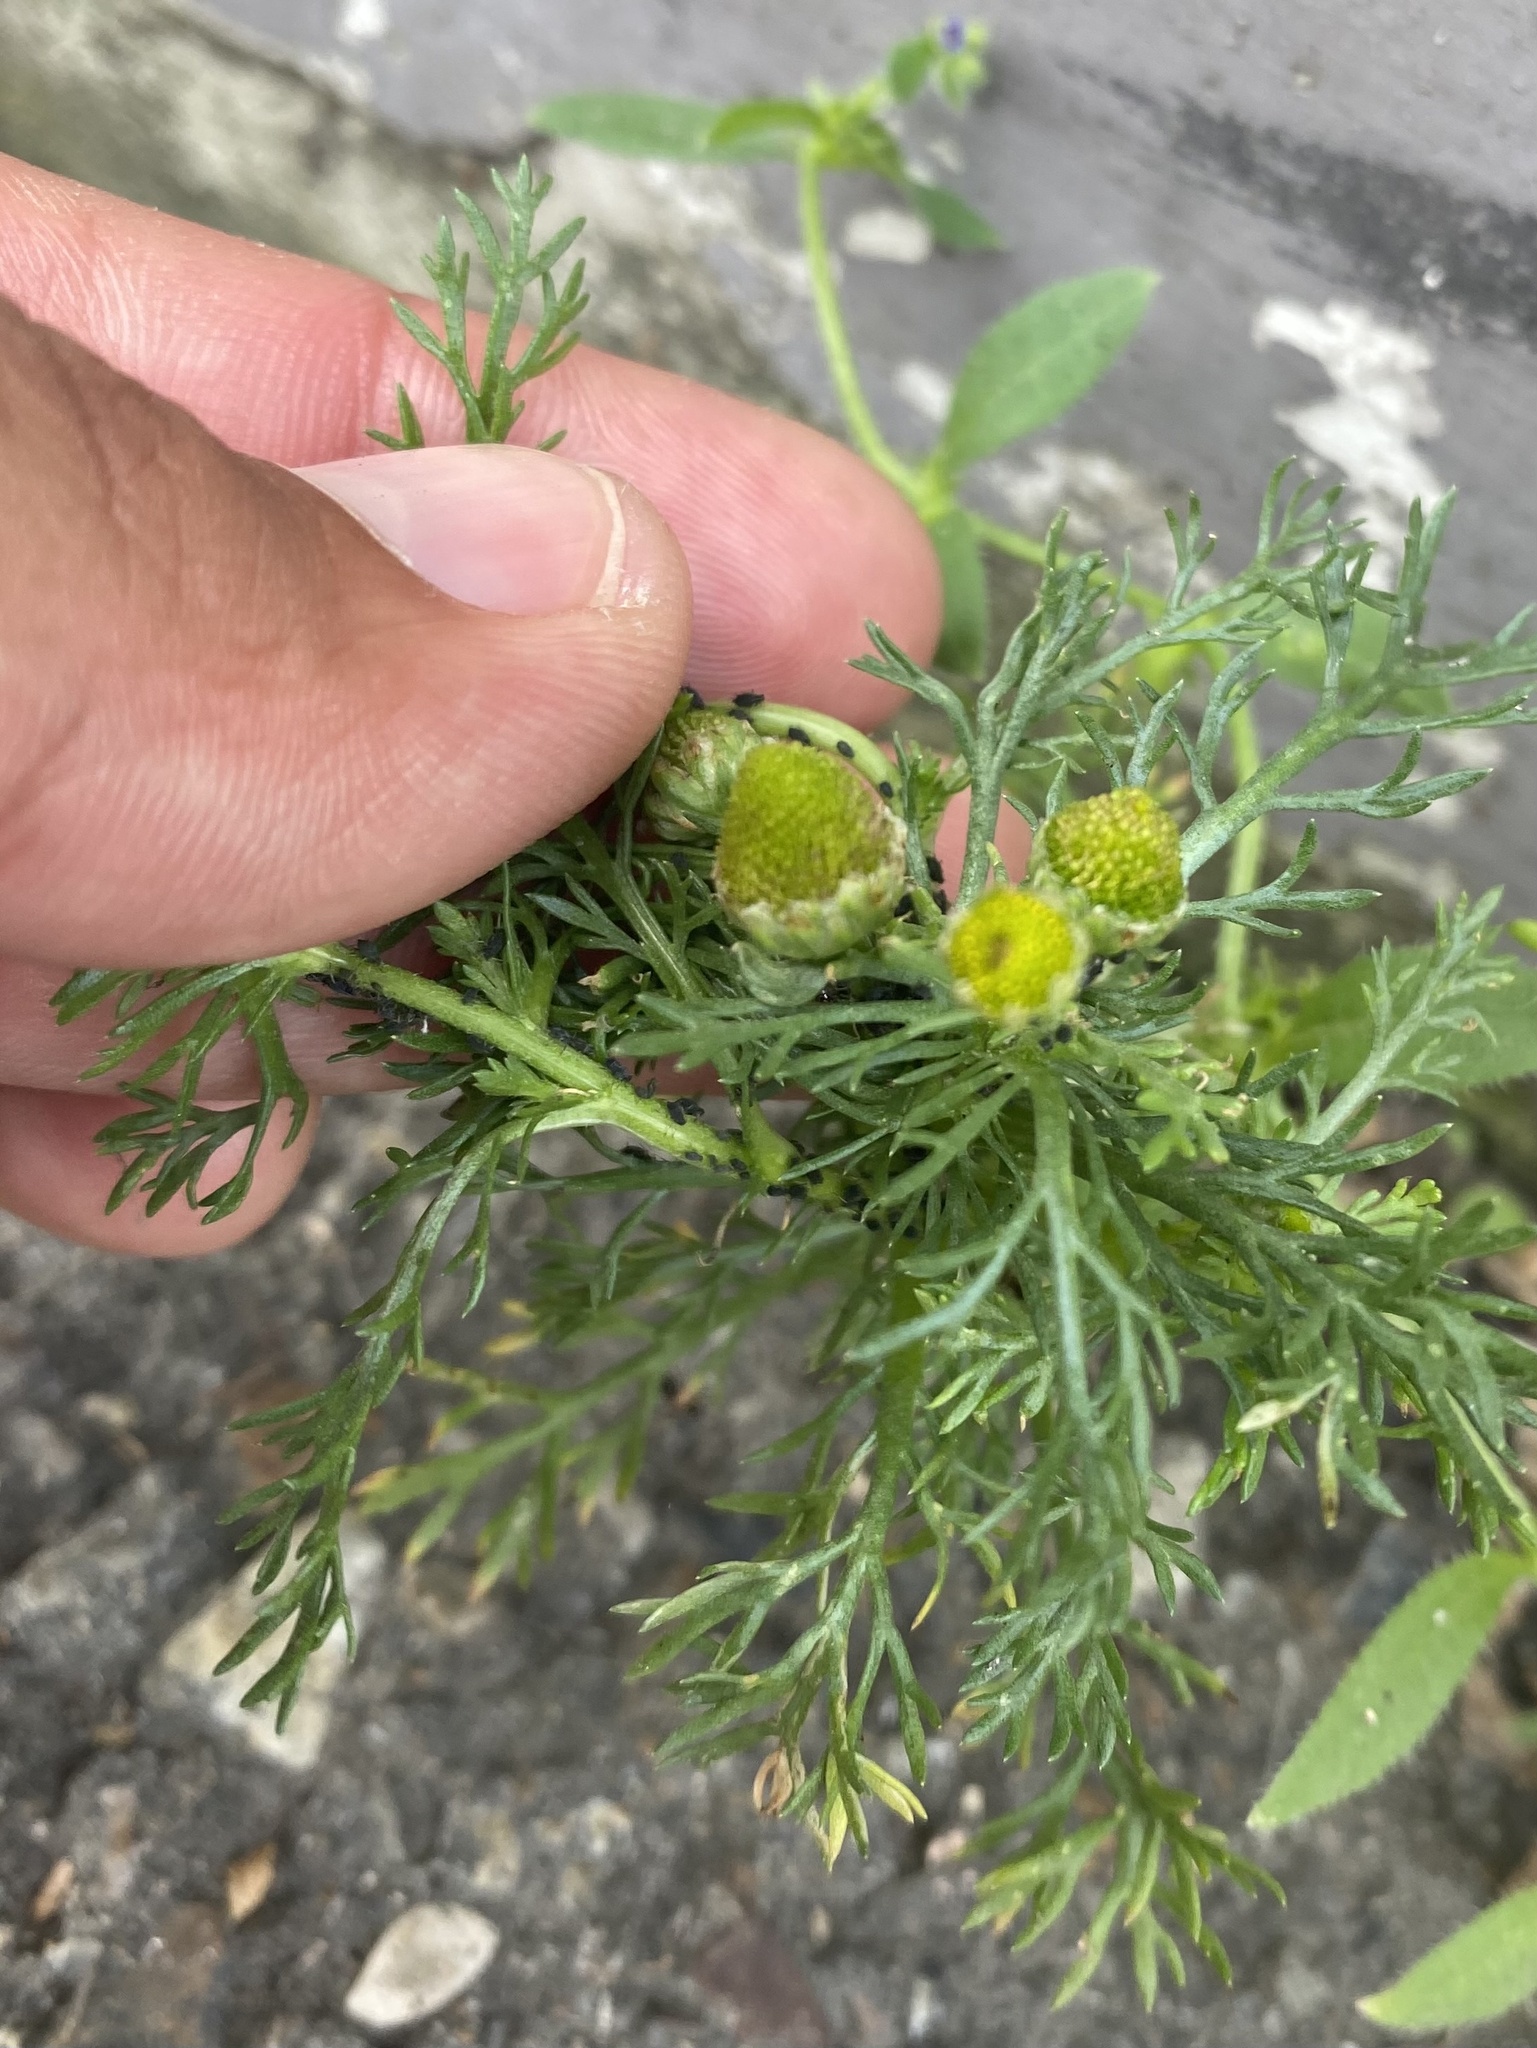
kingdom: Plantae
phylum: Tracheophyta
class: Magnoliopsida
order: Asterales
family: Asteraceae
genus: Matricaria
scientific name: Matricaria discoidea
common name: Disc mayweed
